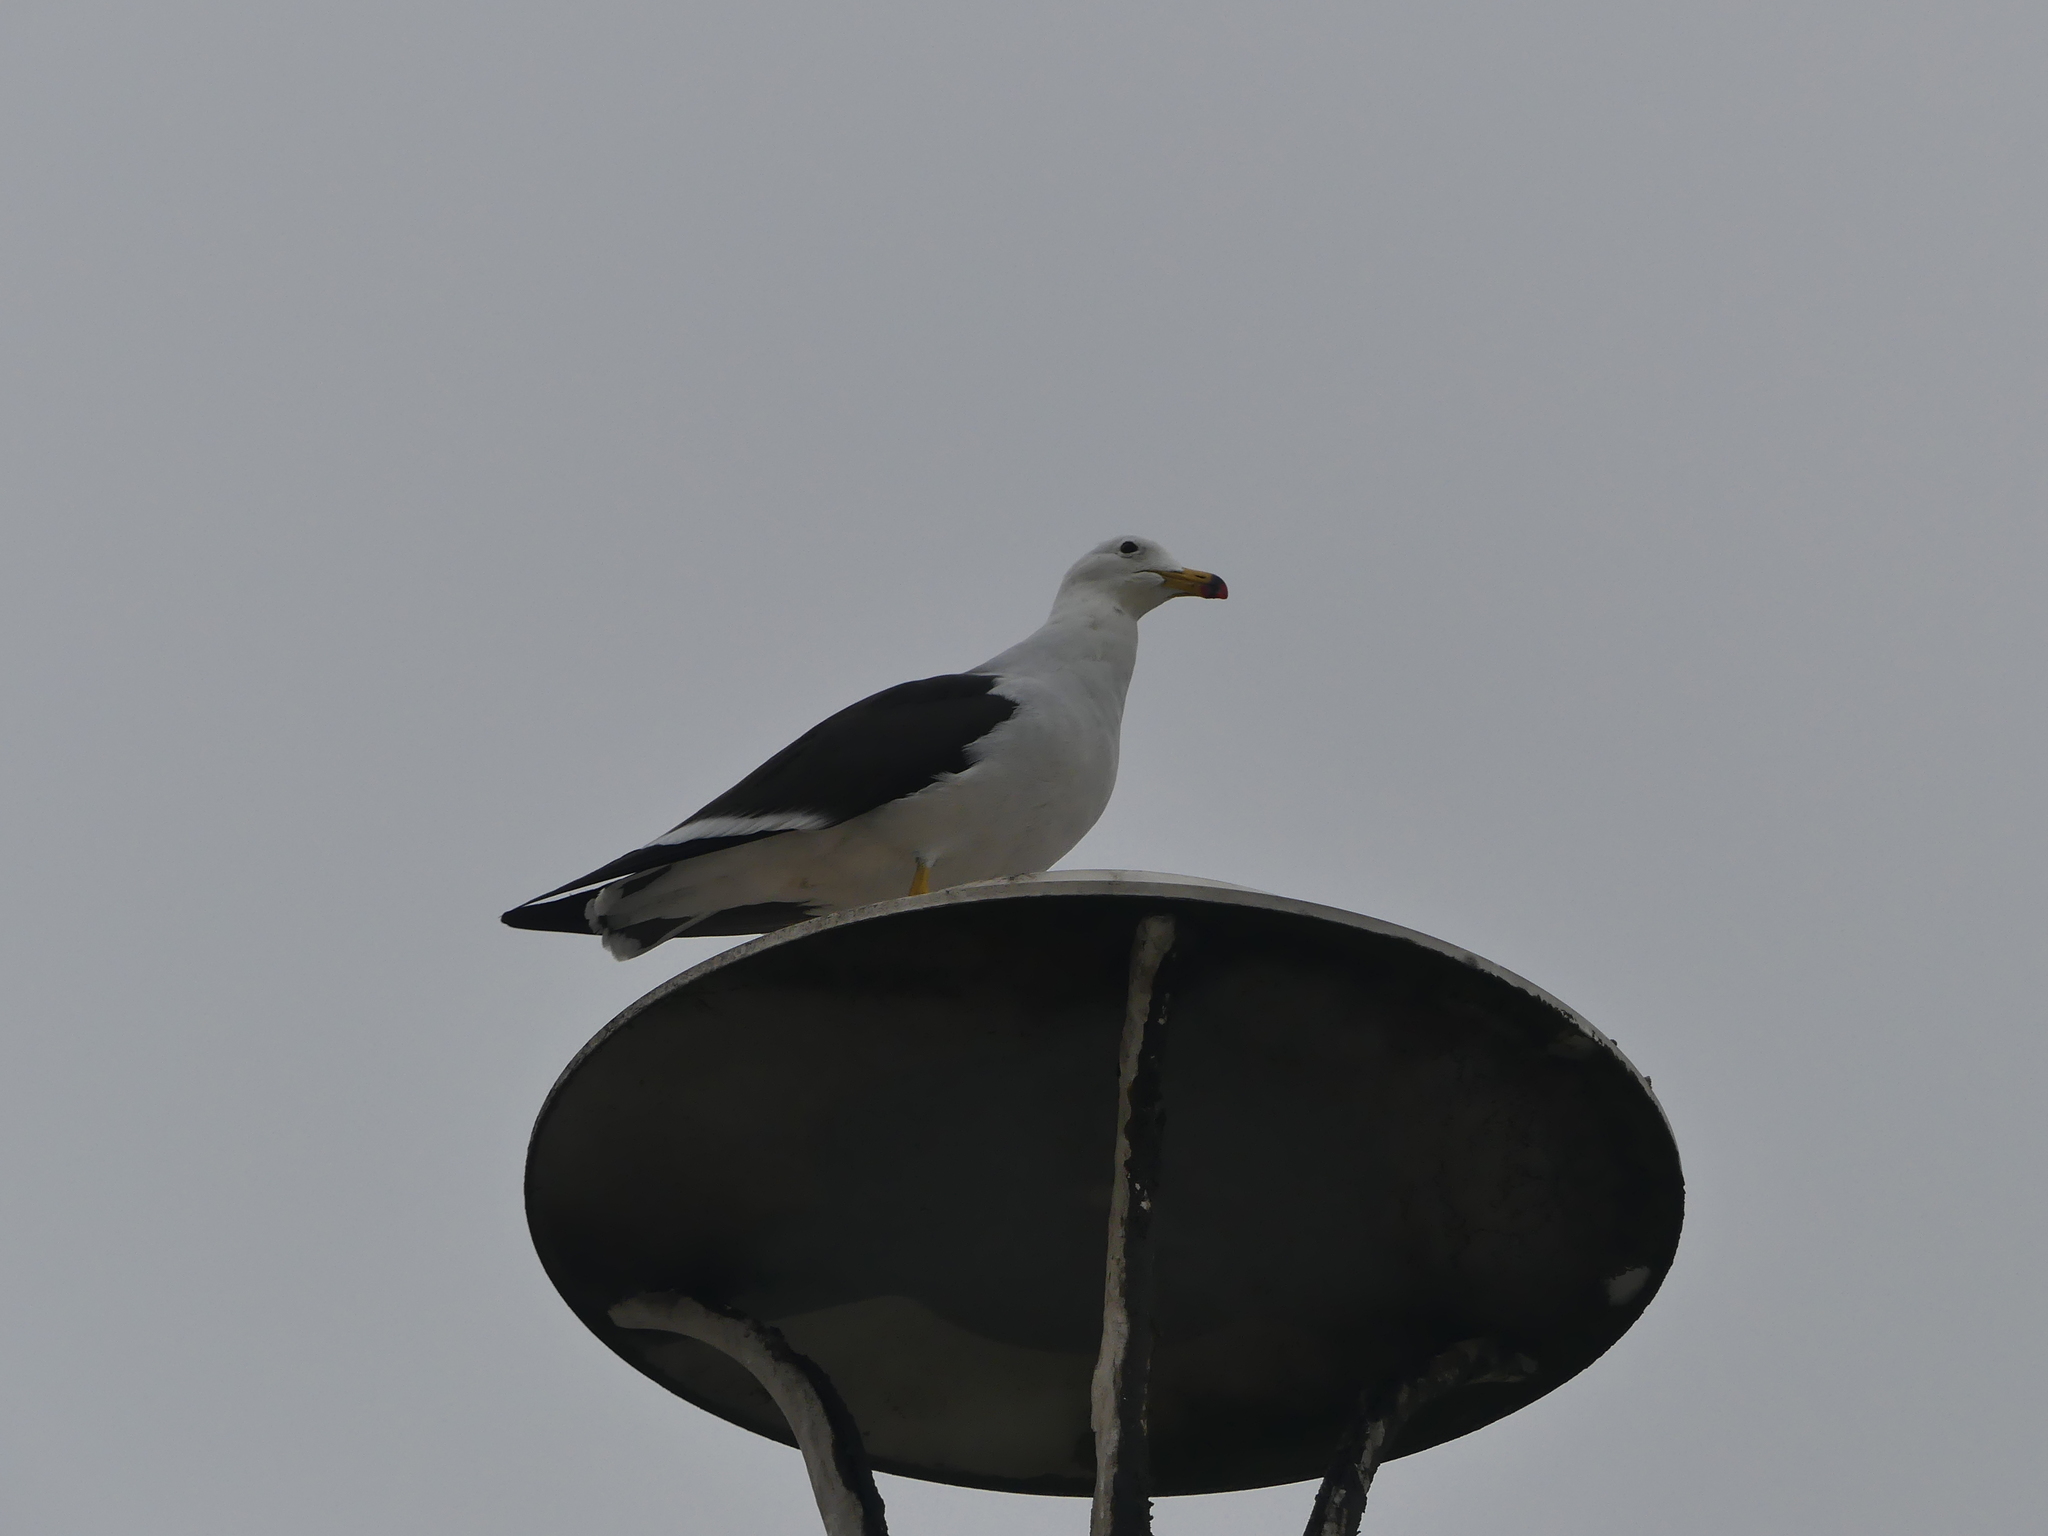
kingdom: Animalia
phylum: Chordata
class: Aves
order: Charadriiformes
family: Laridae
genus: Larus
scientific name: Larus belcheri
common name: Belcher's gull
